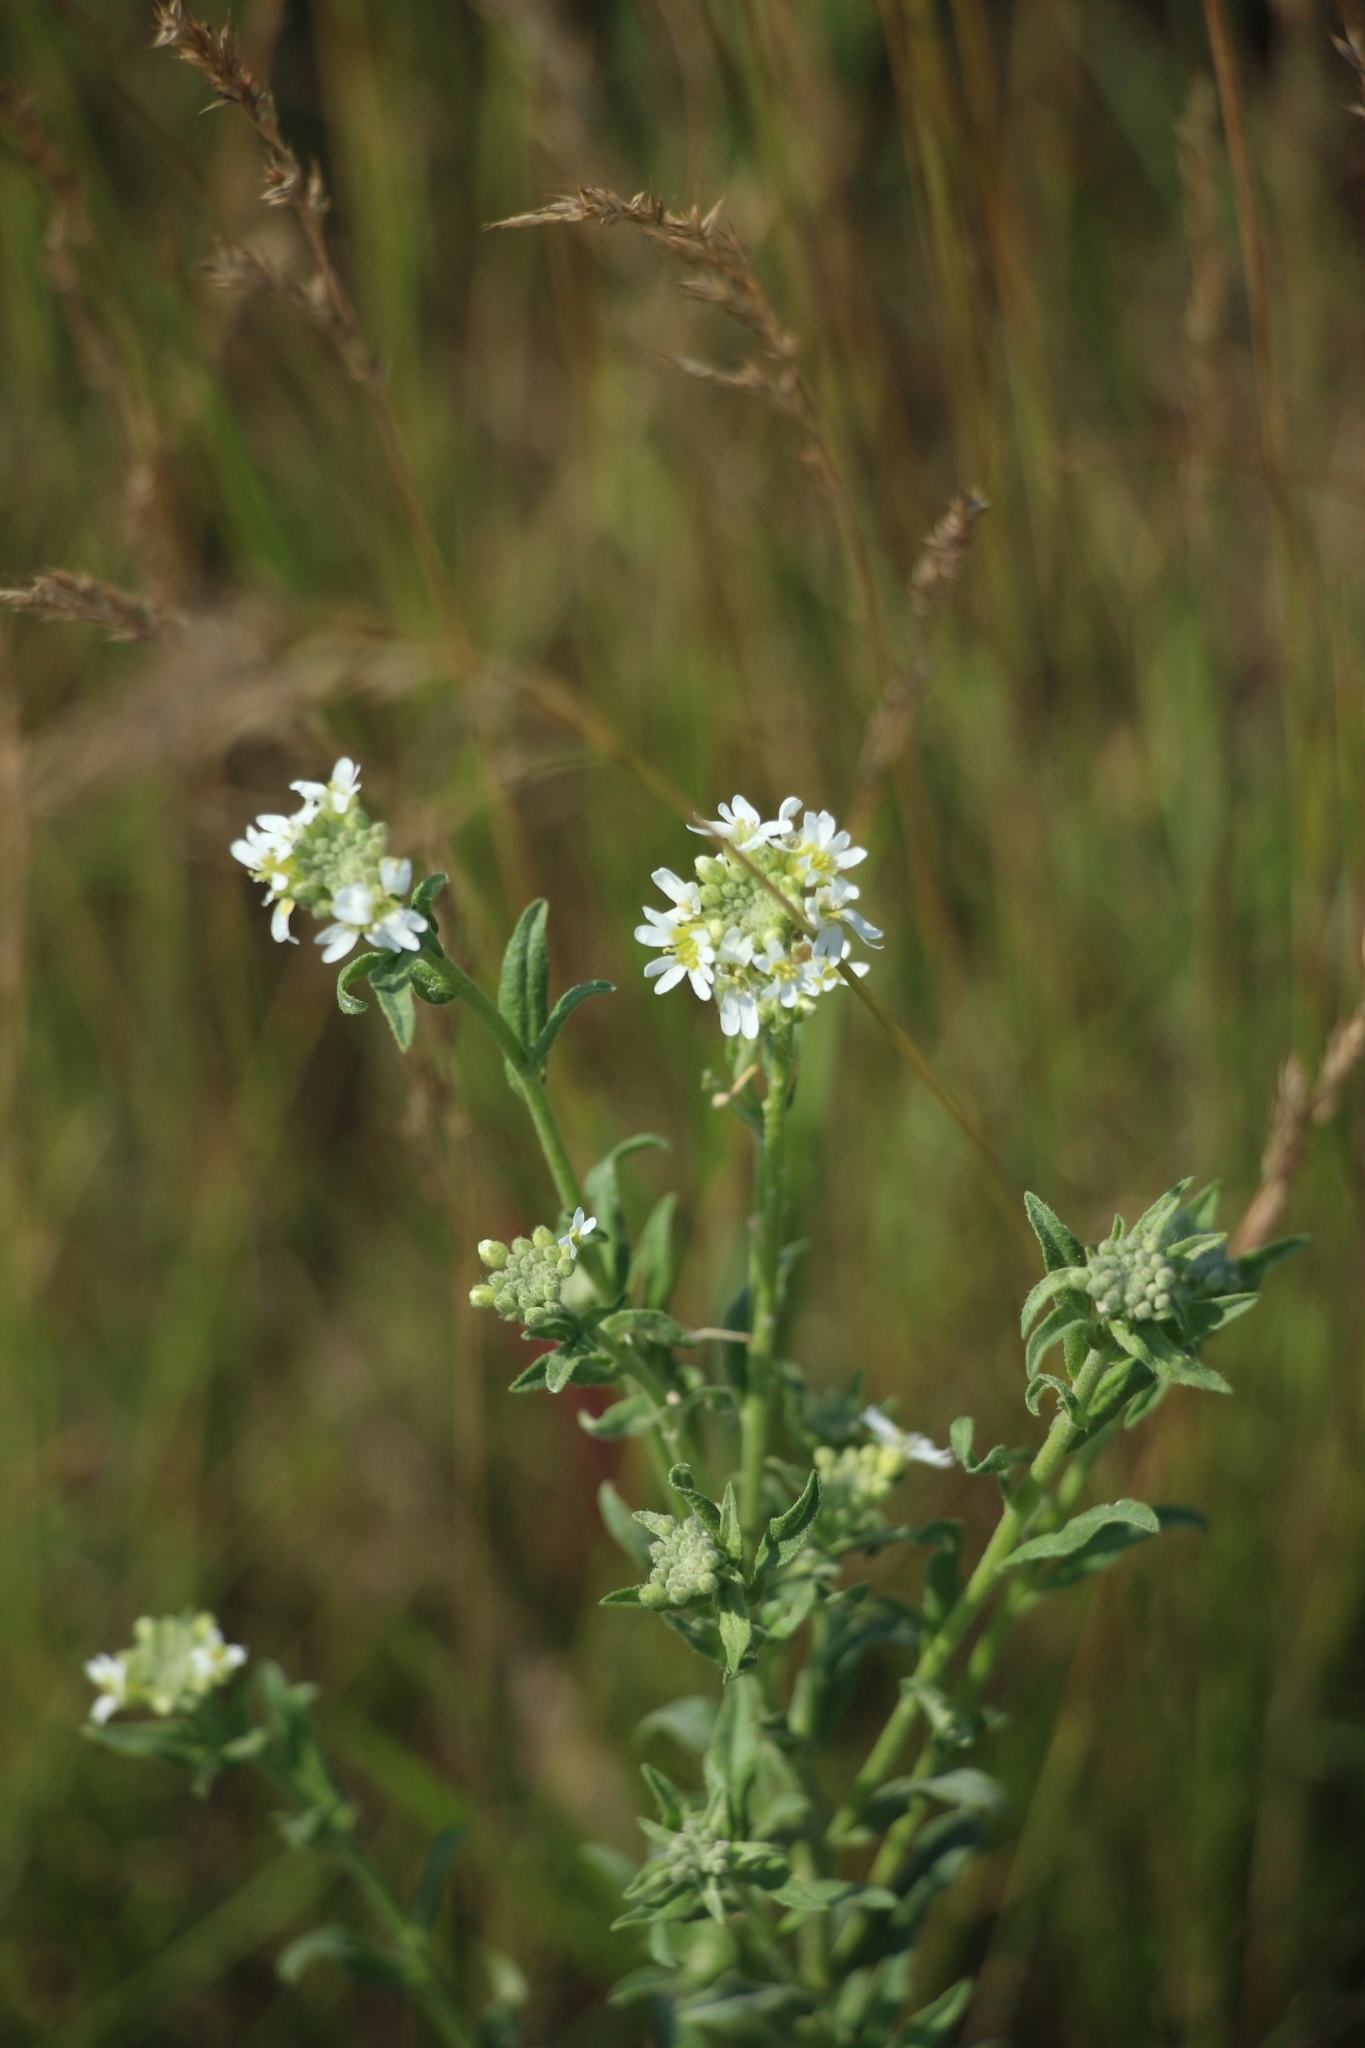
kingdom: Plantae
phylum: Tracheophyta
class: Magnoliopsida
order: Brassicales
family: Brassicaceae
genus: Berteroa
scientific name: Berteroa incana
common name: Hoary alison
